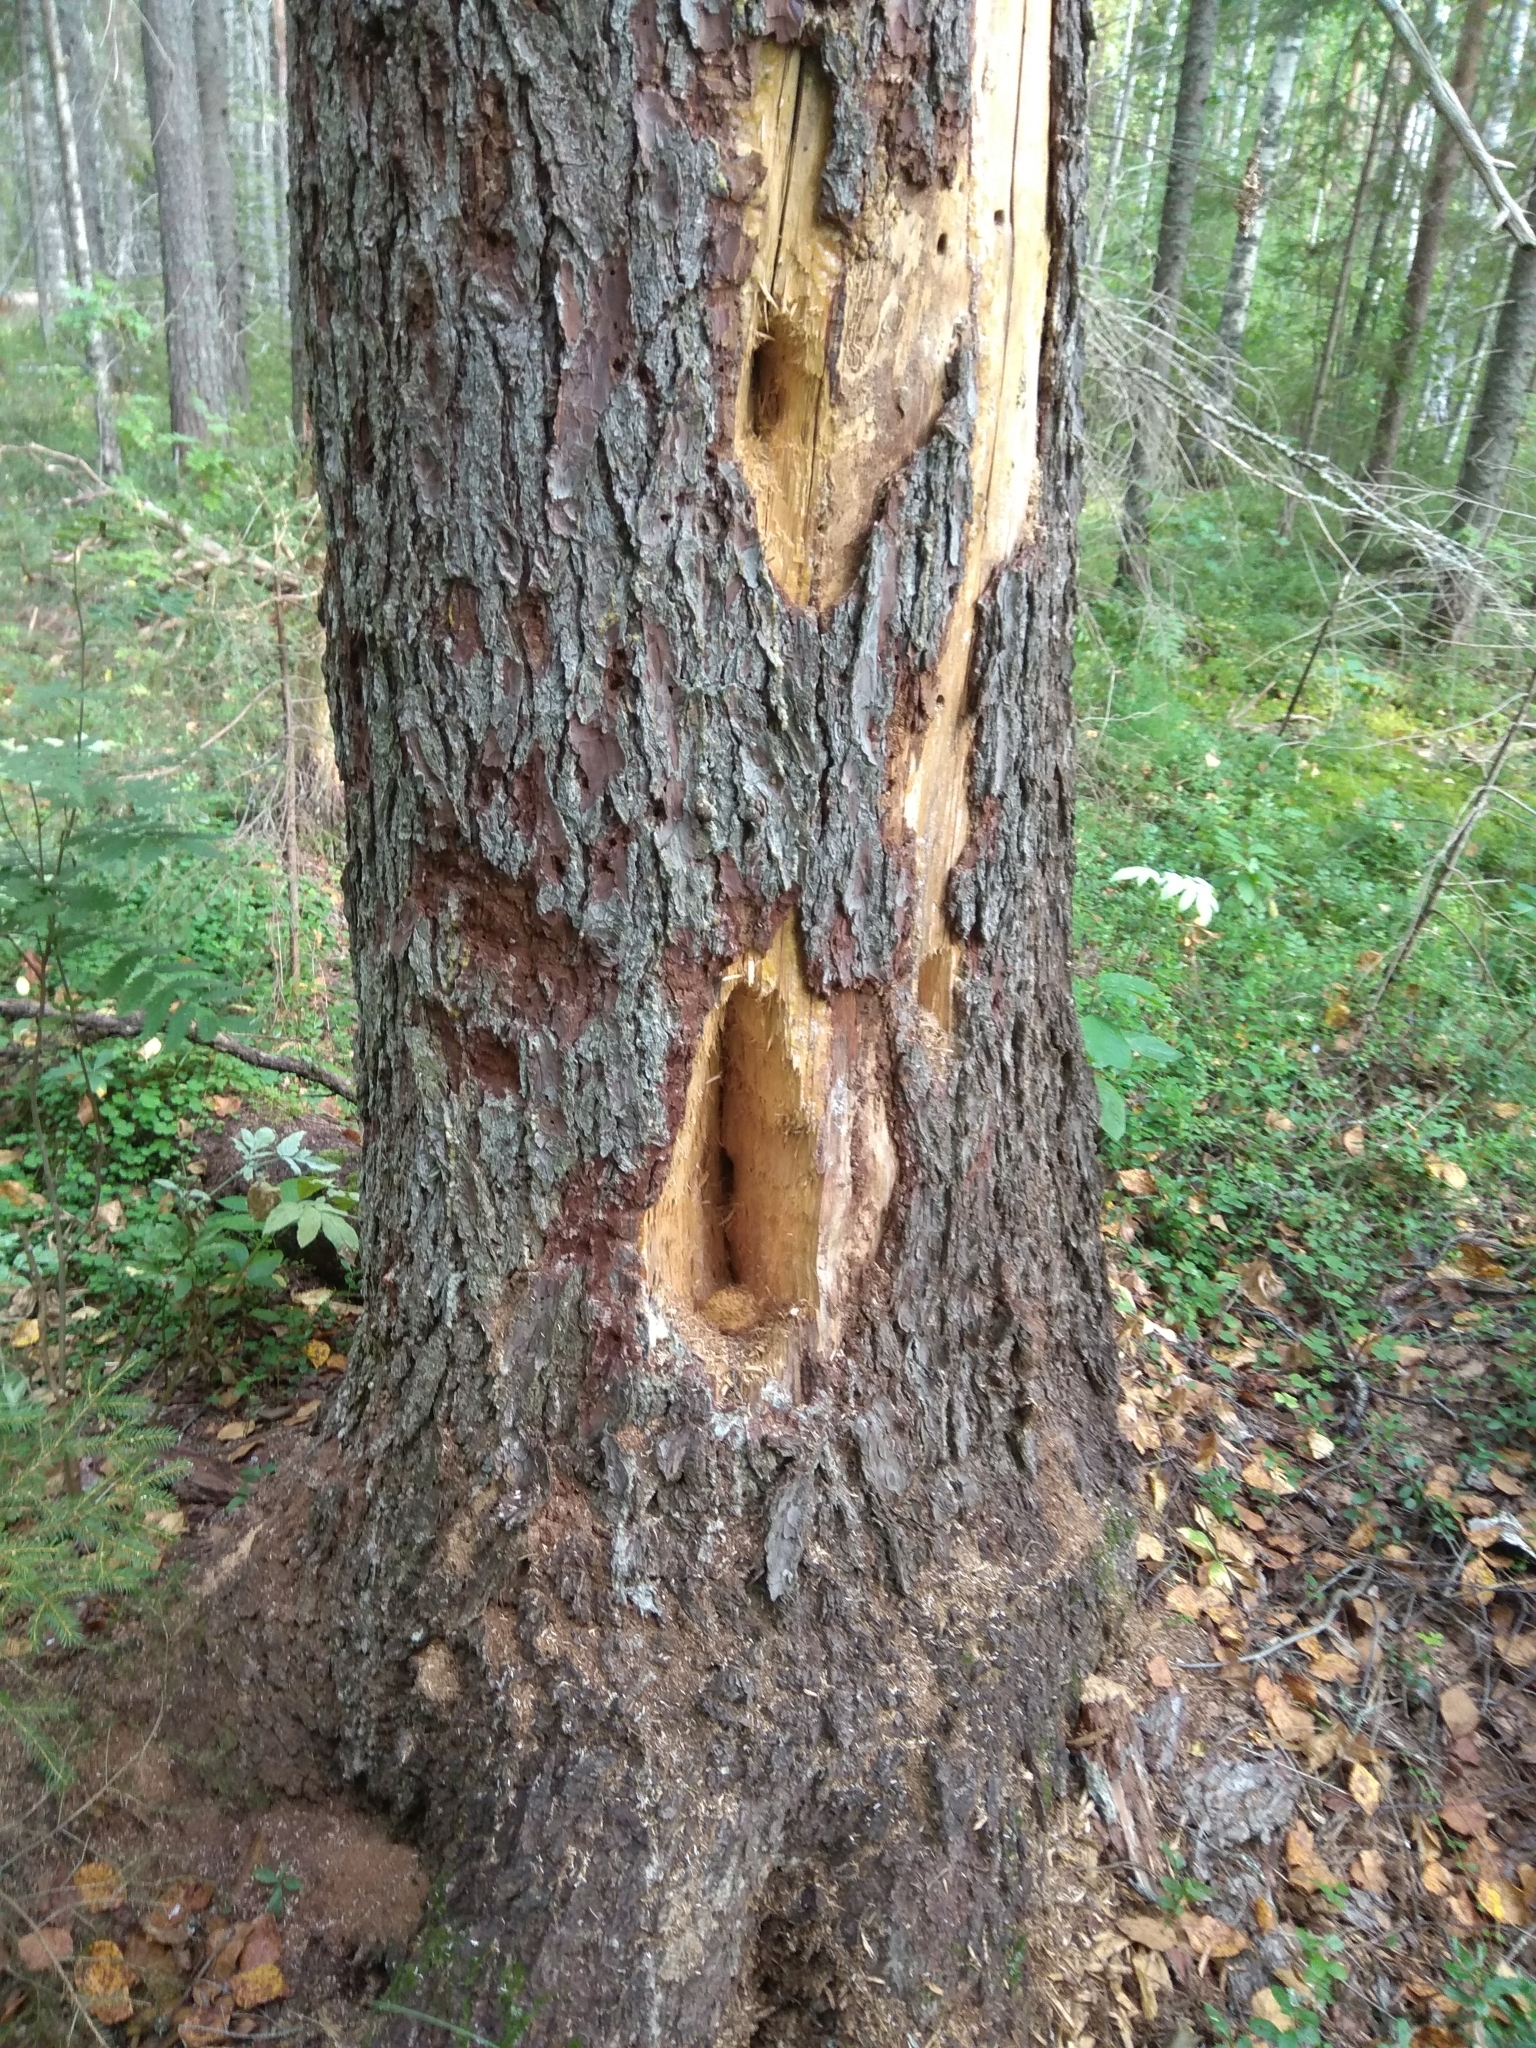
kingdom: Plantae
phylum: Tracheophyta
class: Pinopsida
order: Pinales
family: Pinaceae
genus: Picea
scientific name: Picea abies
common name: Norway spruce
